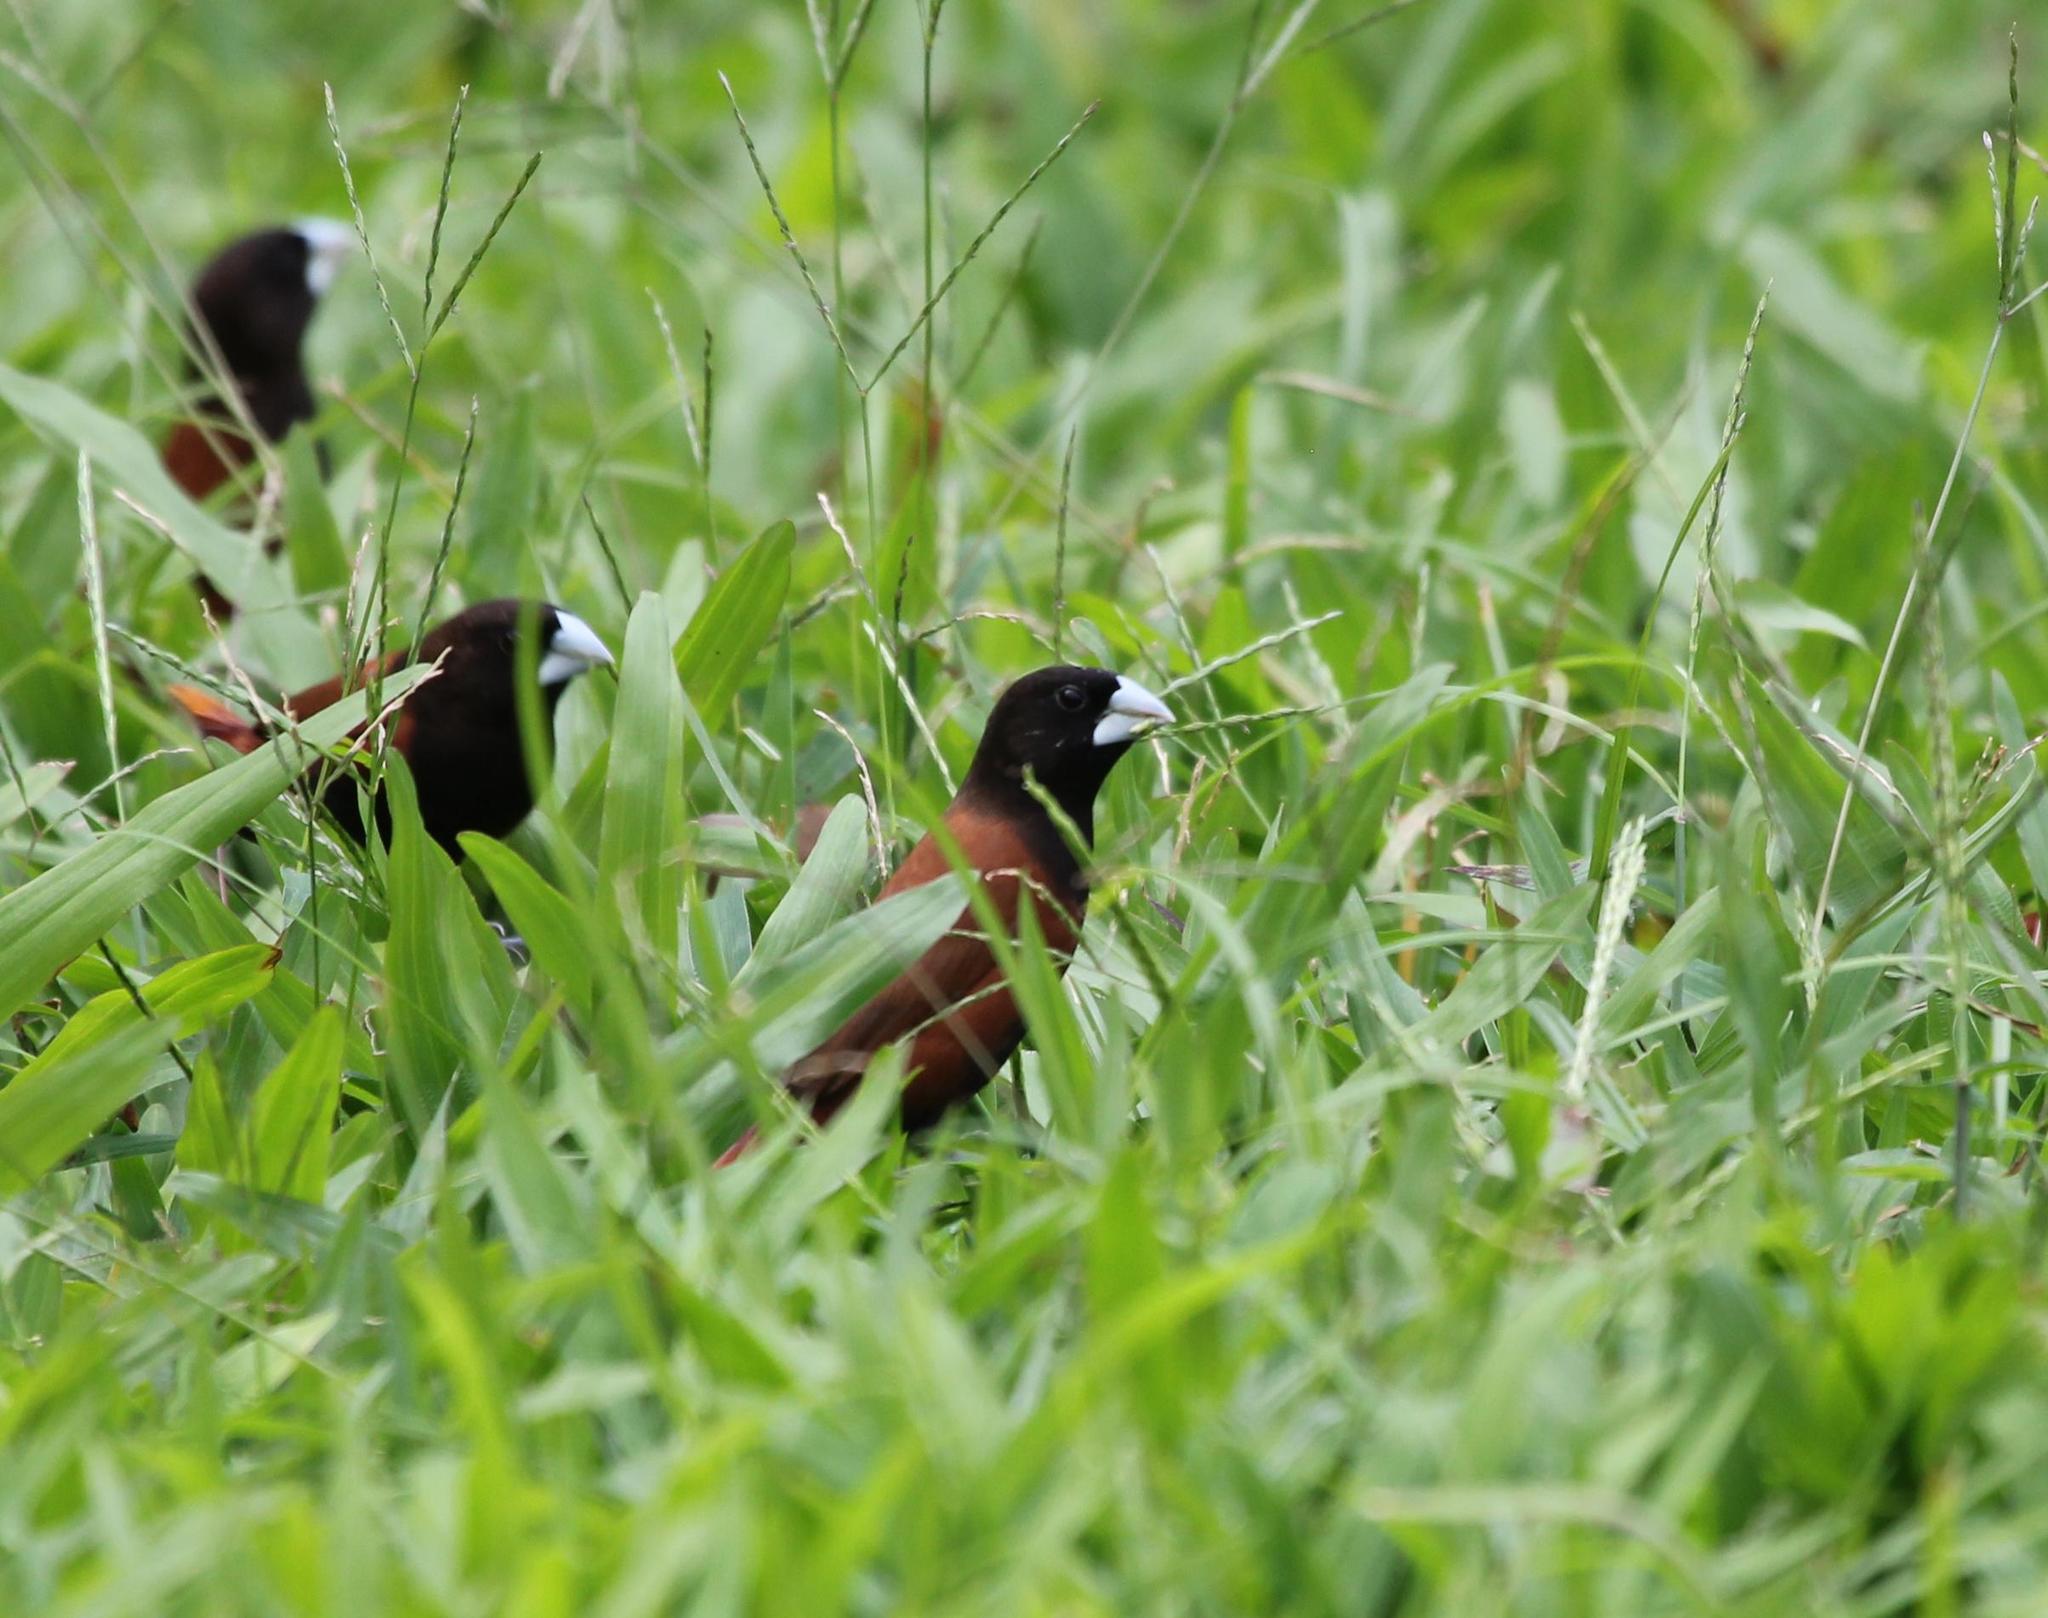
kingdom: Animalia
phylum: Chordata
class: Aves
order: Passeriformes
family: Estrildidae
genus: Lonchura
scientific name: Lonchura atricapilla
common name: Chestnut munia
